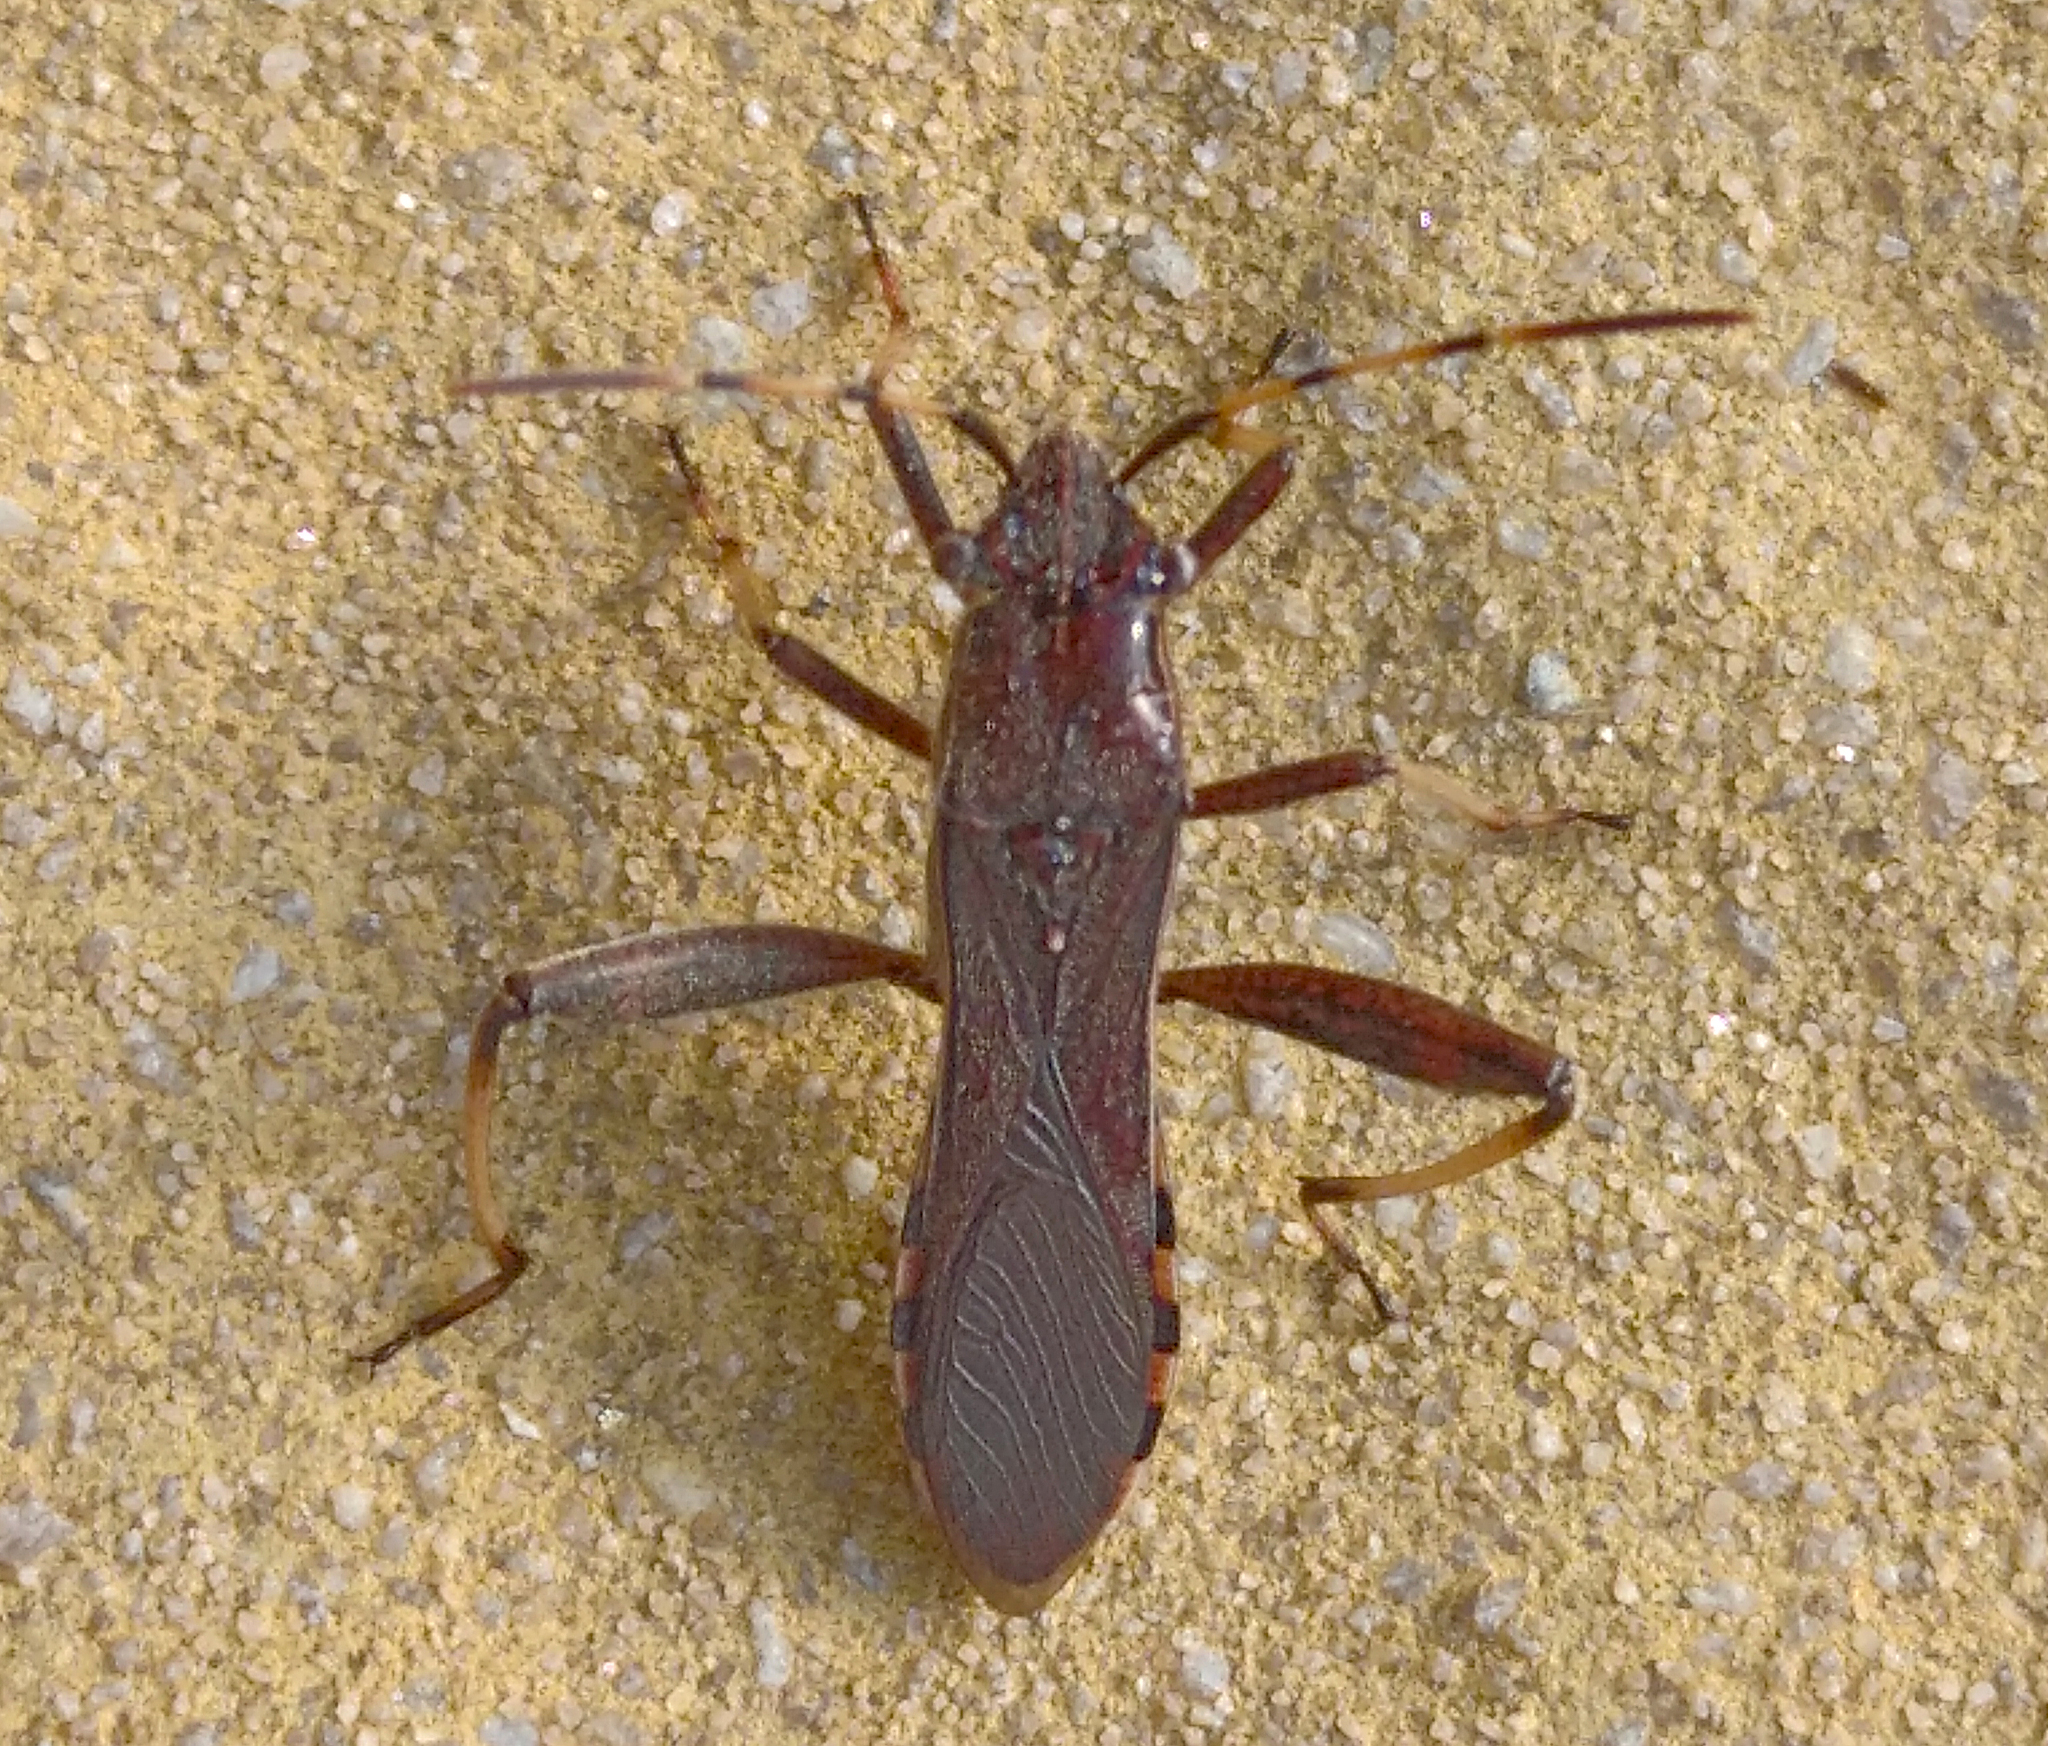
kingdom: Animalia
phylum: Arthropoda
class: Insecta
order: Hemiptera
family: Alydidae
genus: Camptopus
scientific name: Camptopus lateralis
